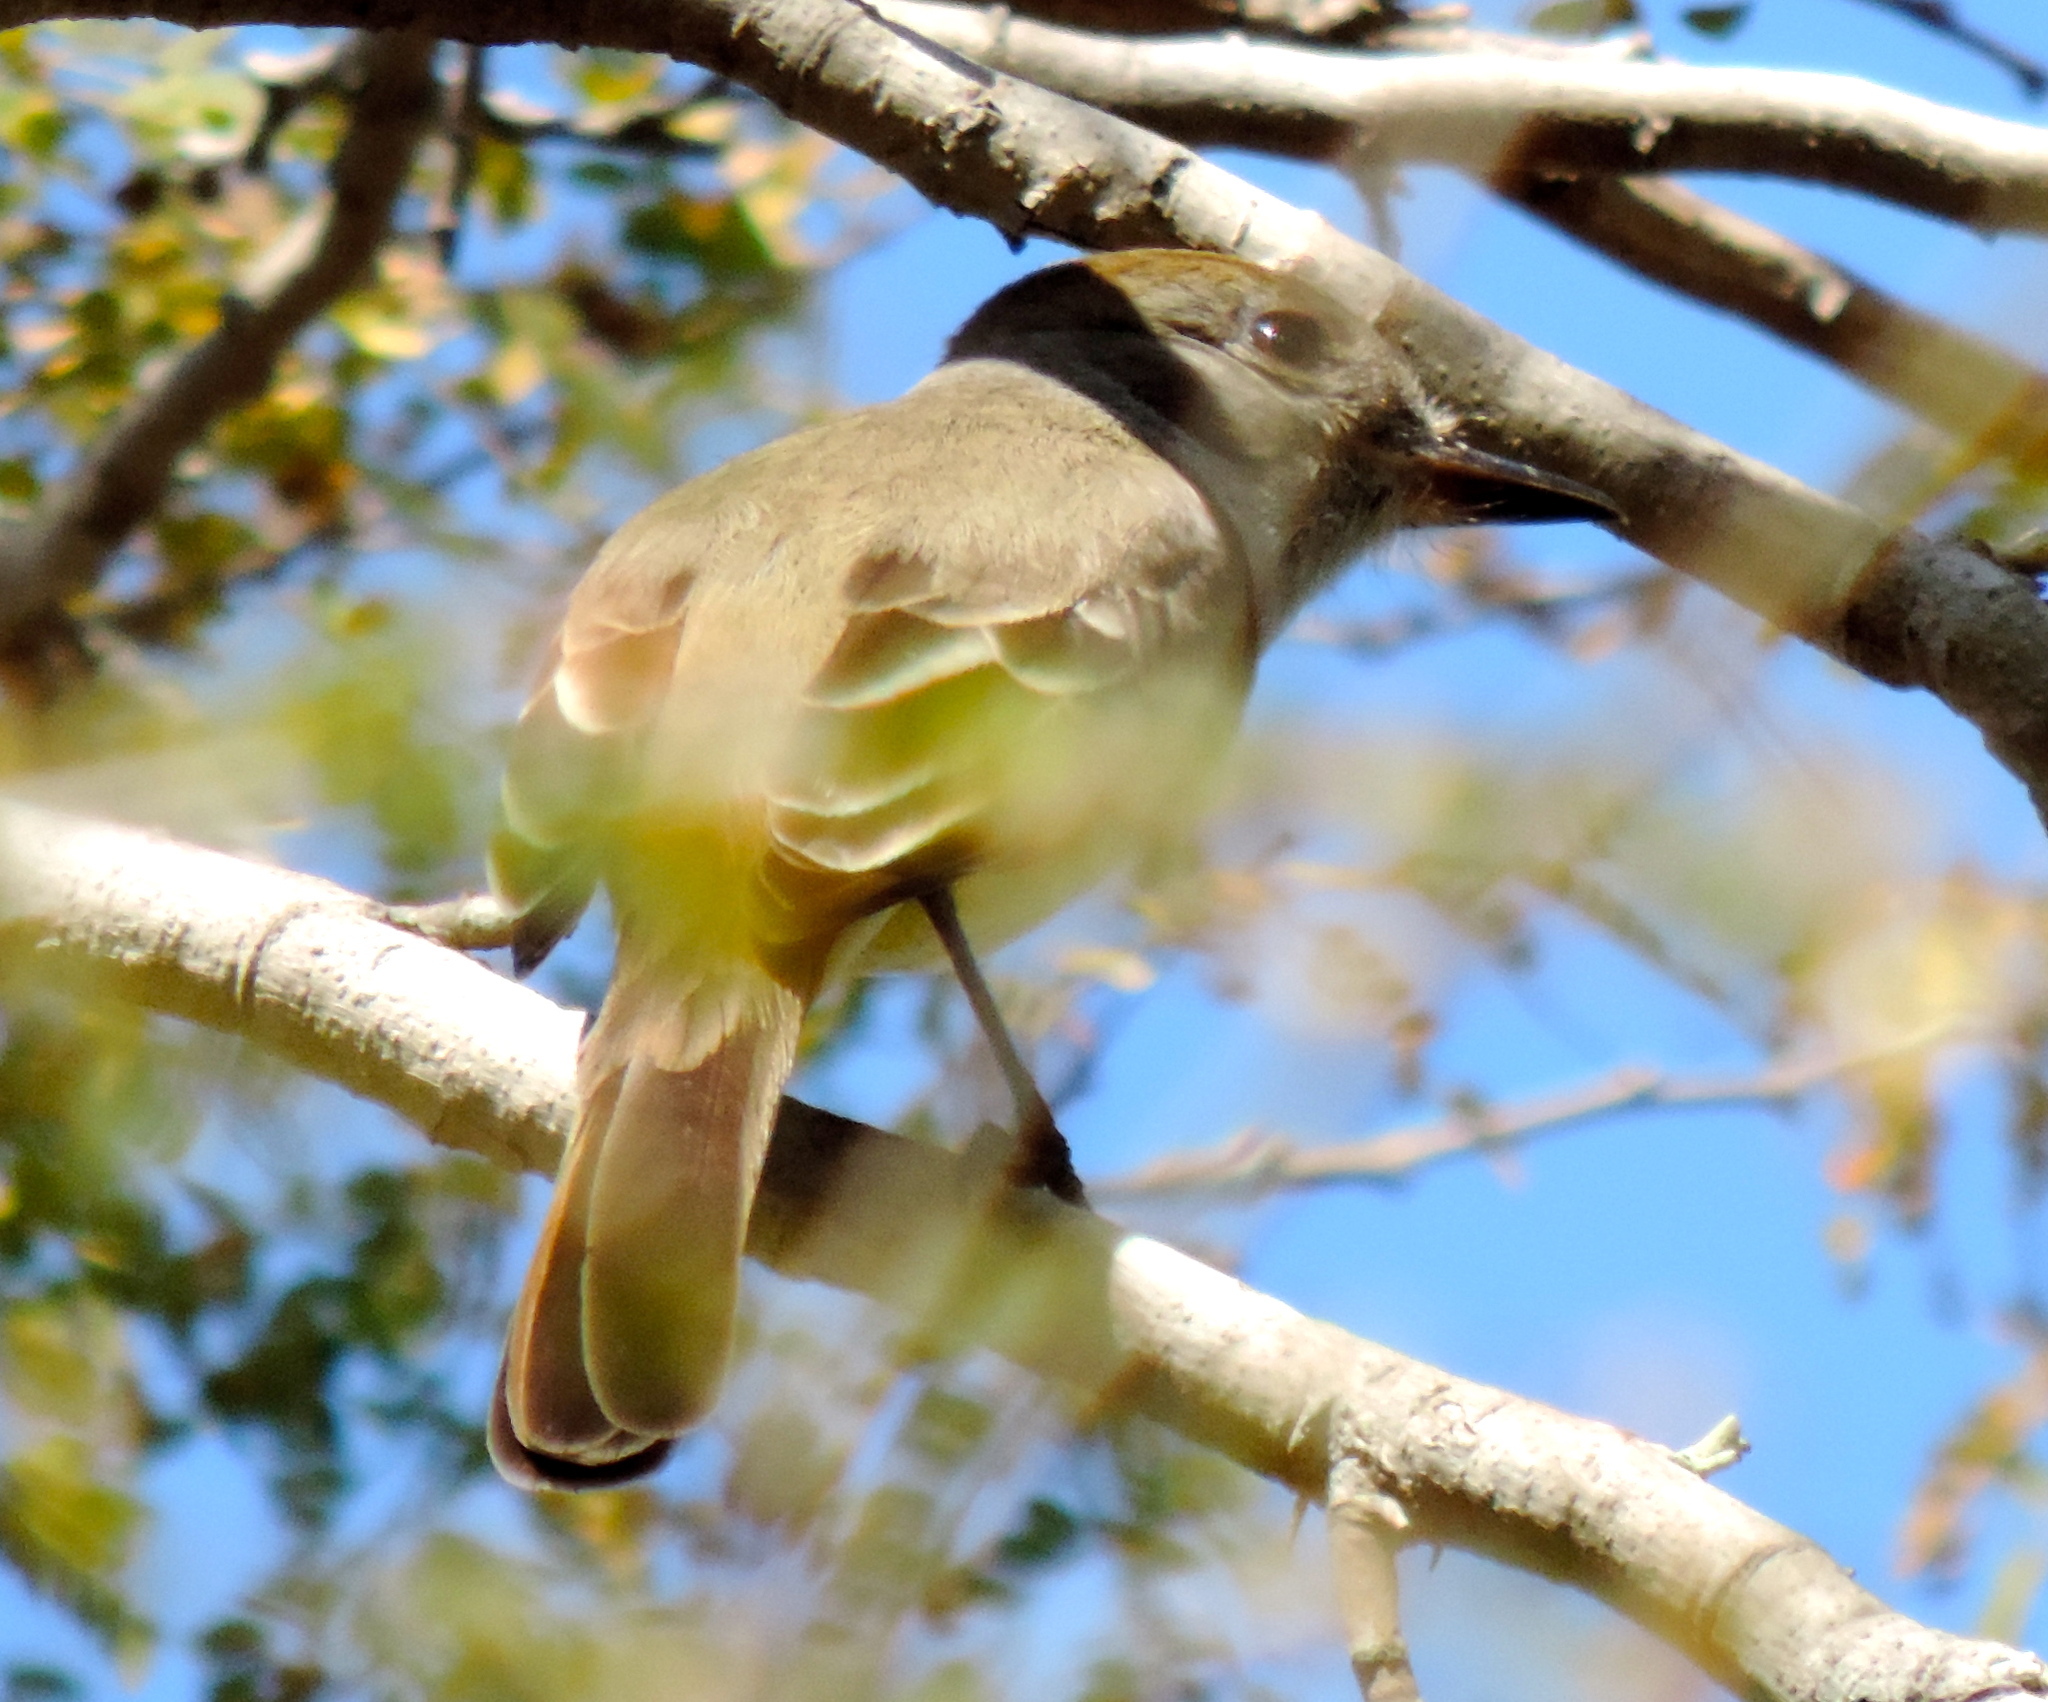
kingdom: Animalia
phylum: Chordata
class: Aves
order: Passeriformes
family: Tyrannidae
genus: Myiarchus
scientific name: Myiarchus
